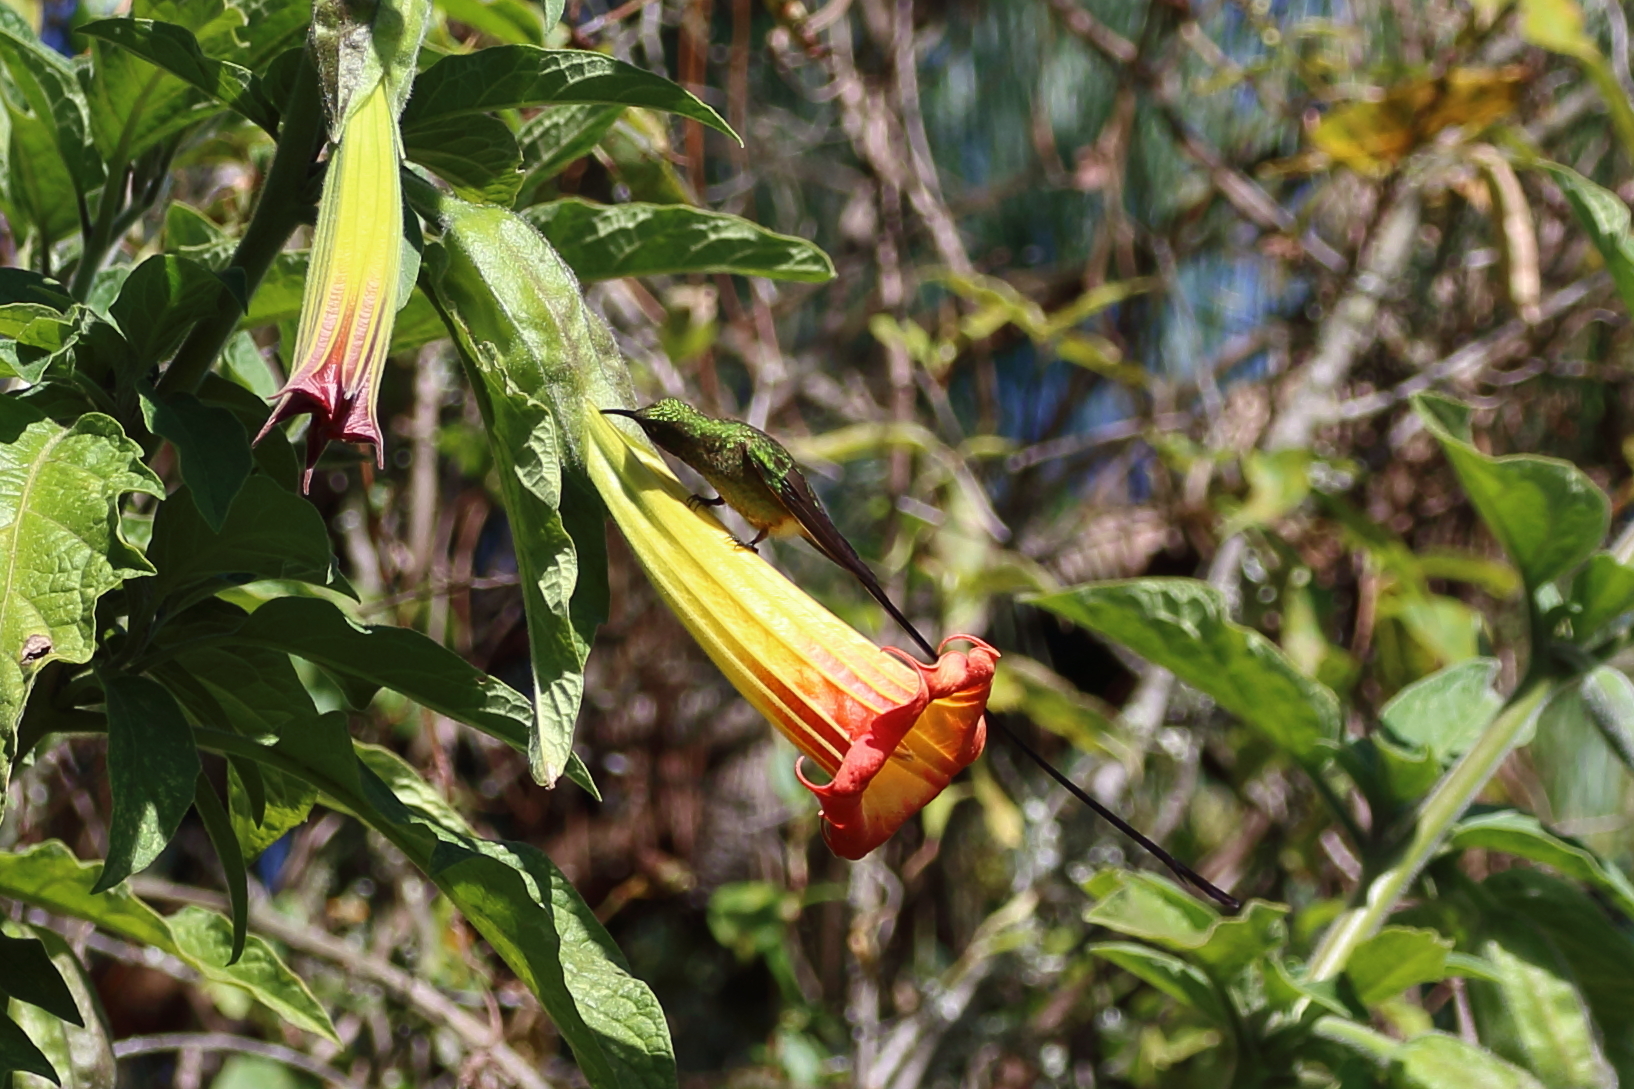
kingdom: Animalia
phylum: Chordata
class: Aves
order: Apodiformes
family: Trochilidae
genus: Lesbia
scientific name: Lesbia victoriae
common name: Black-tailed trainbearer
